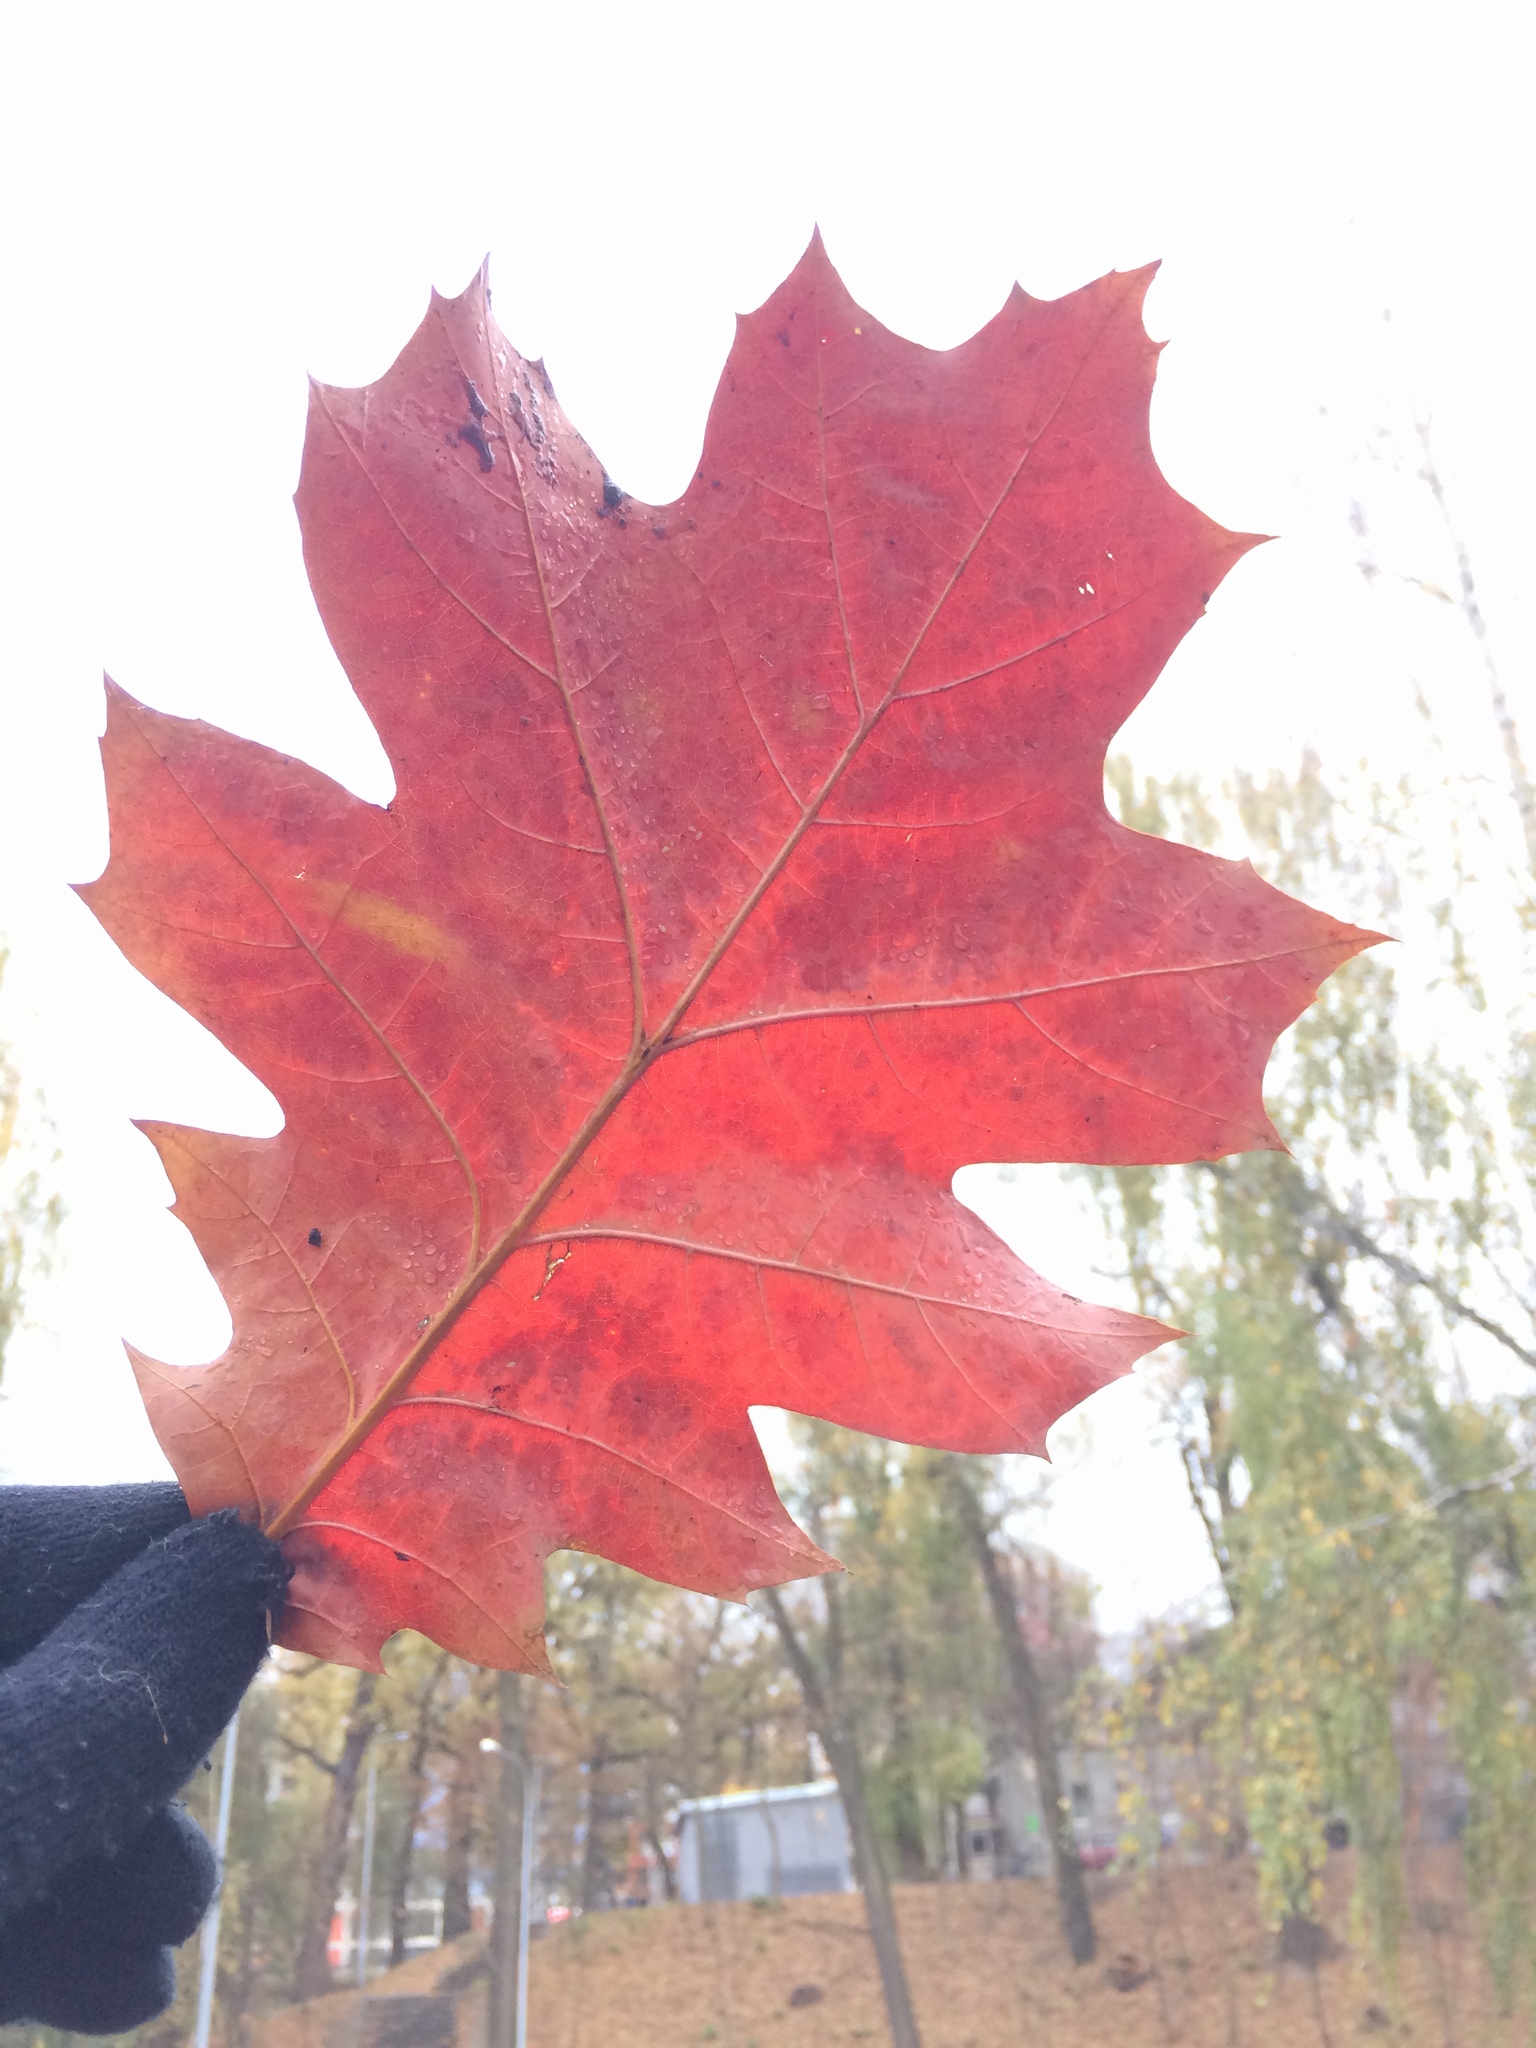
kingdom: Plantae
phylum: Tracheophyta
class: Magnoliopsida
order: Fagales
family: Fagaceae
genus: Quercus
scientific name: Quercus rubra
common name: Red oak
